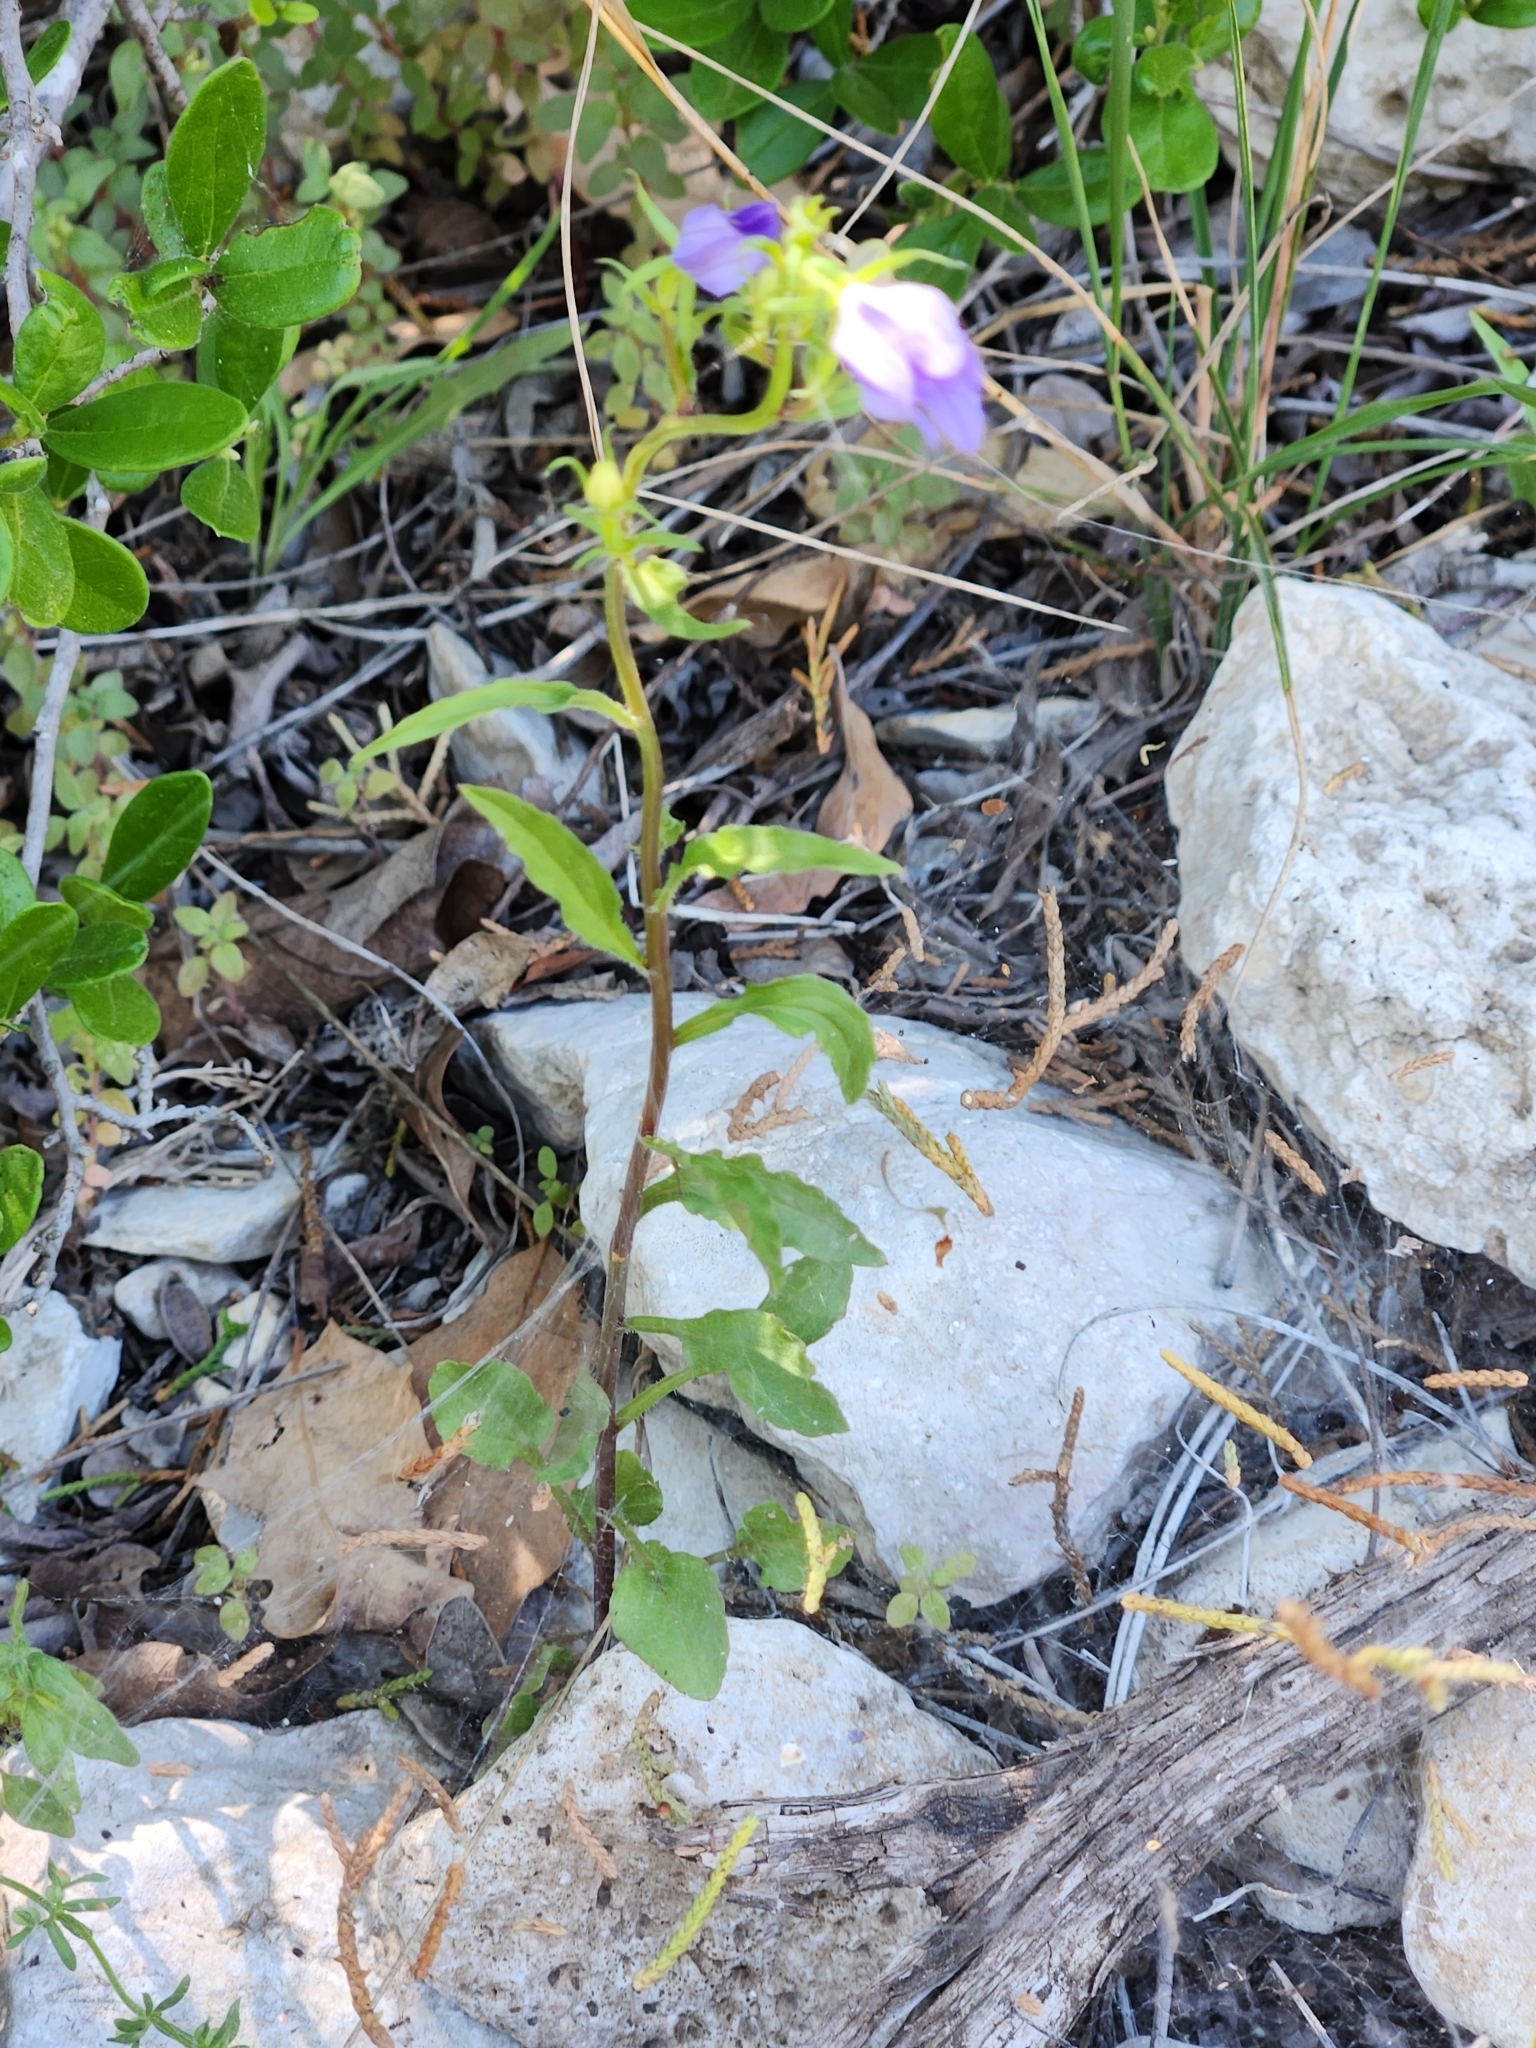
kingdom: Plantae
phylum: Tracheophyta
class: Magnoliopsida
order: Asterales
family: Campanulaceae
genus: Triodanis
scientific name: Triodanis coloradoensis
